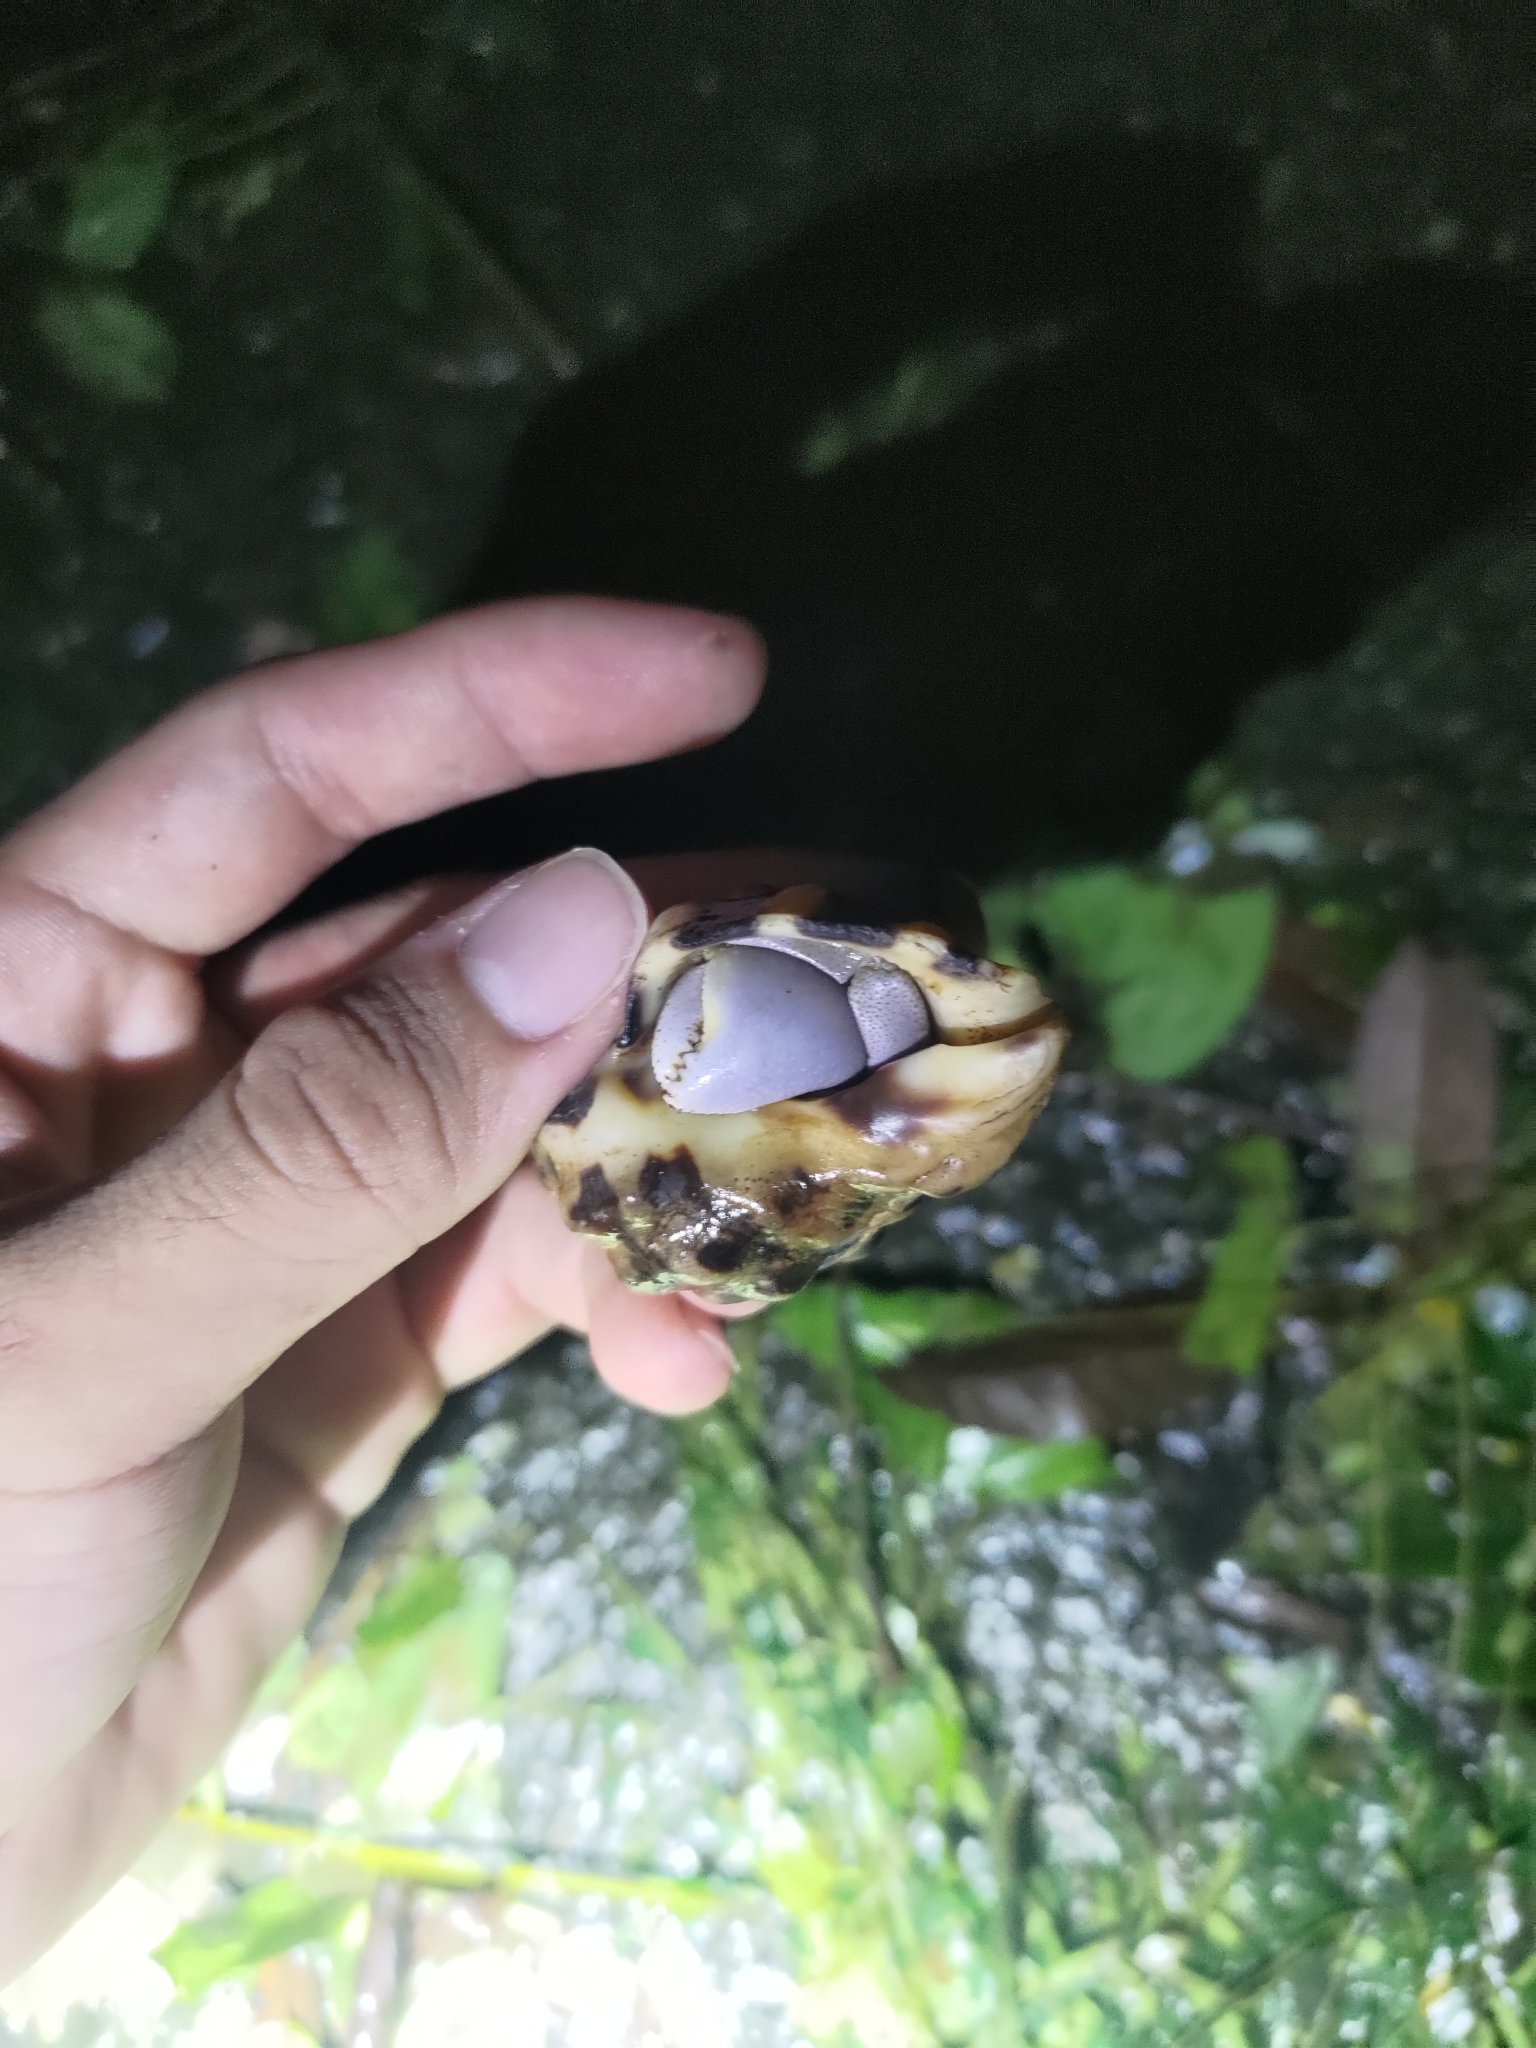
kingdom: Animalia
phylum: Arthropoda
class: Malacostraca
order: Decapoda
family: Coenobitidae
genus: Coenobita
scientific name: Coenobita brevimanus
